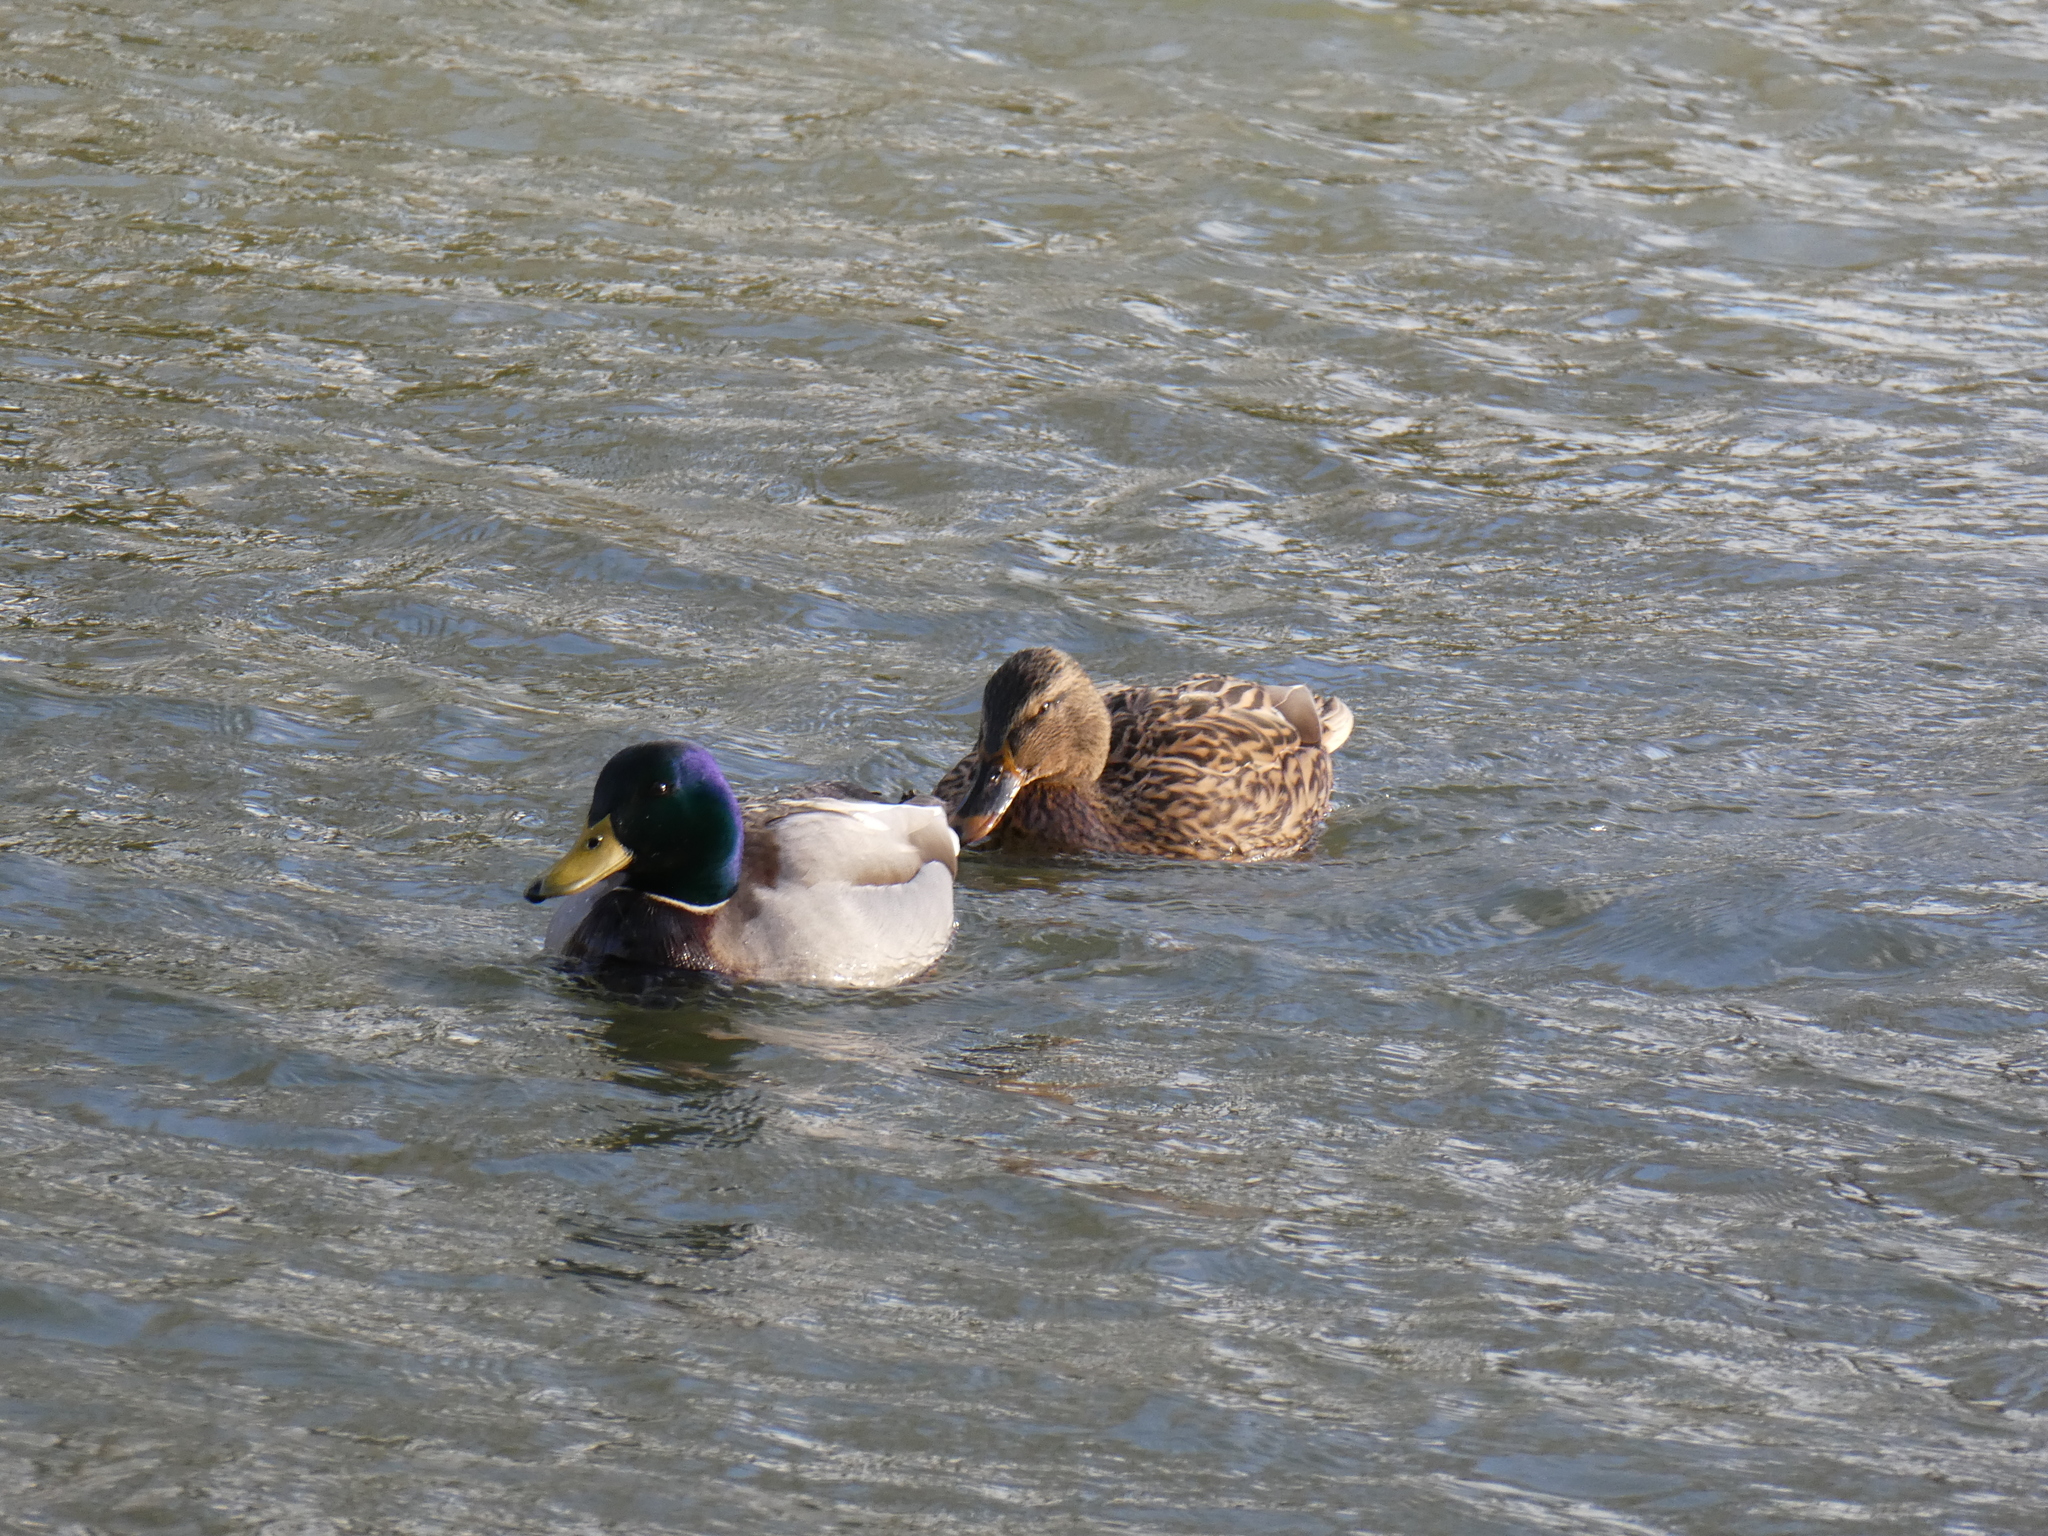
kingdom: Animalia
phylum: Chordata
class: Aves
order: Anseriformes
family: Anatidae
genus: Anas
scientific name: Anas platyrhynchos
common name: Mallard
